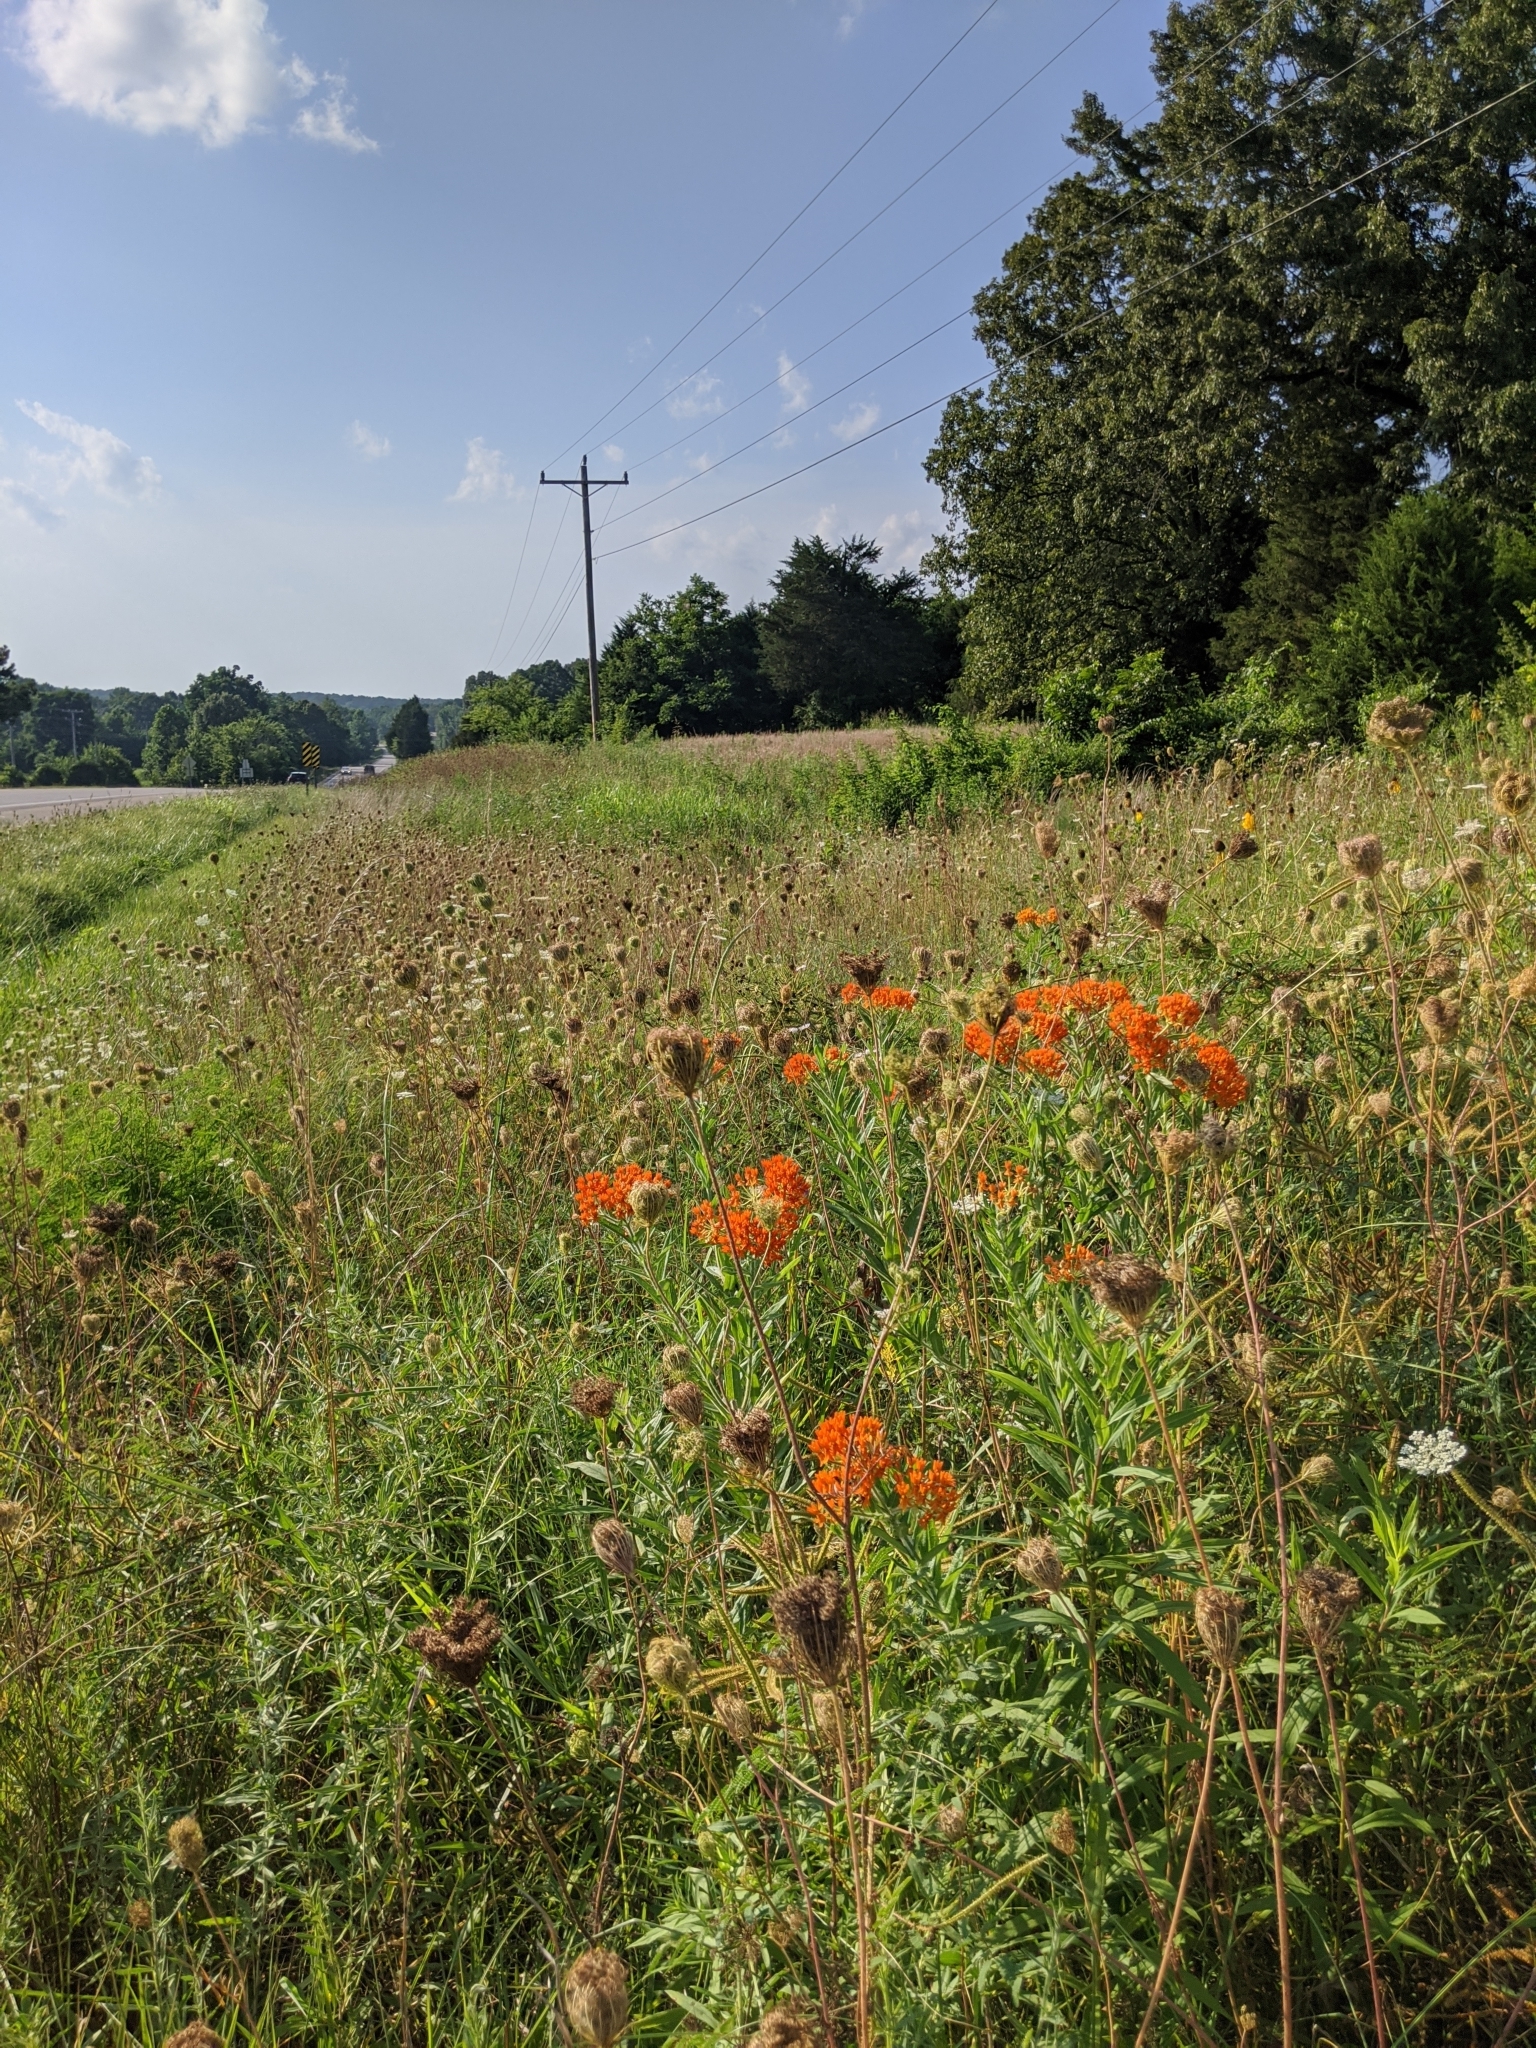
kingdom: Plantae
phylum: Tracheophyta
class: Magnoliopsida
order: Gentianales
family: Apocynaceae
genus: Asclepias
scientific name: Asclepias tuberosa
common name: Butterfly milkweed
